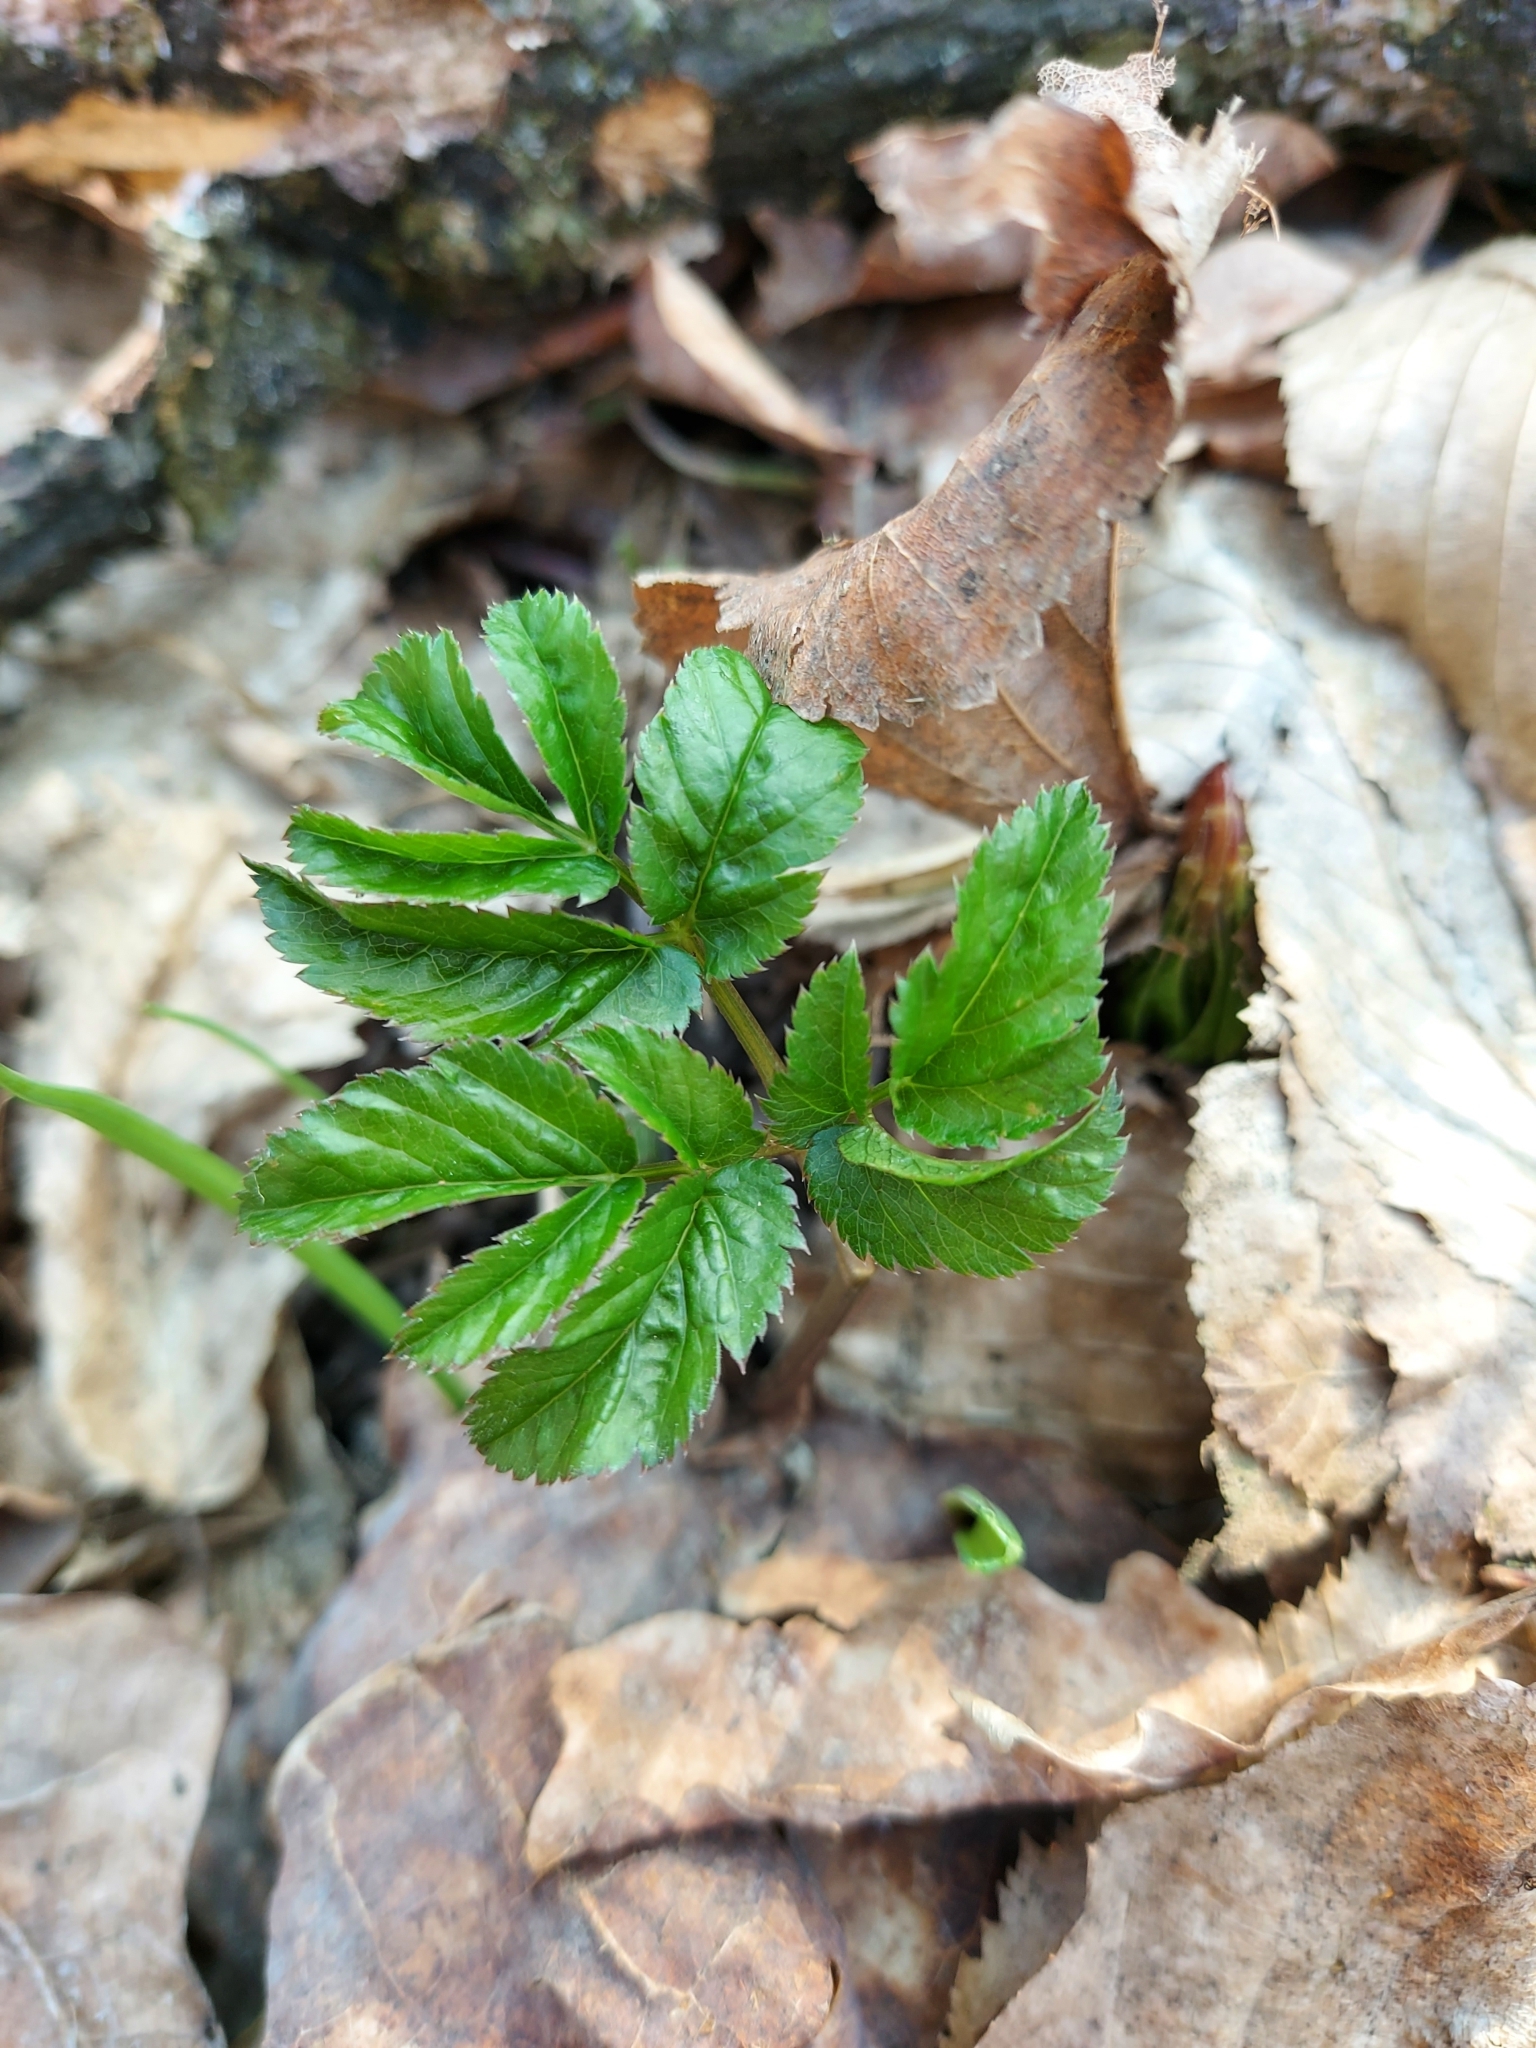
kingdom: Plantae
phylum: Tracheophyta
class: Magnoliopsida
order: Apiales
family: Apiaceae
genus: Aegopodium
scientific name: Aegopodium podagraria
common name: Ground-elder
